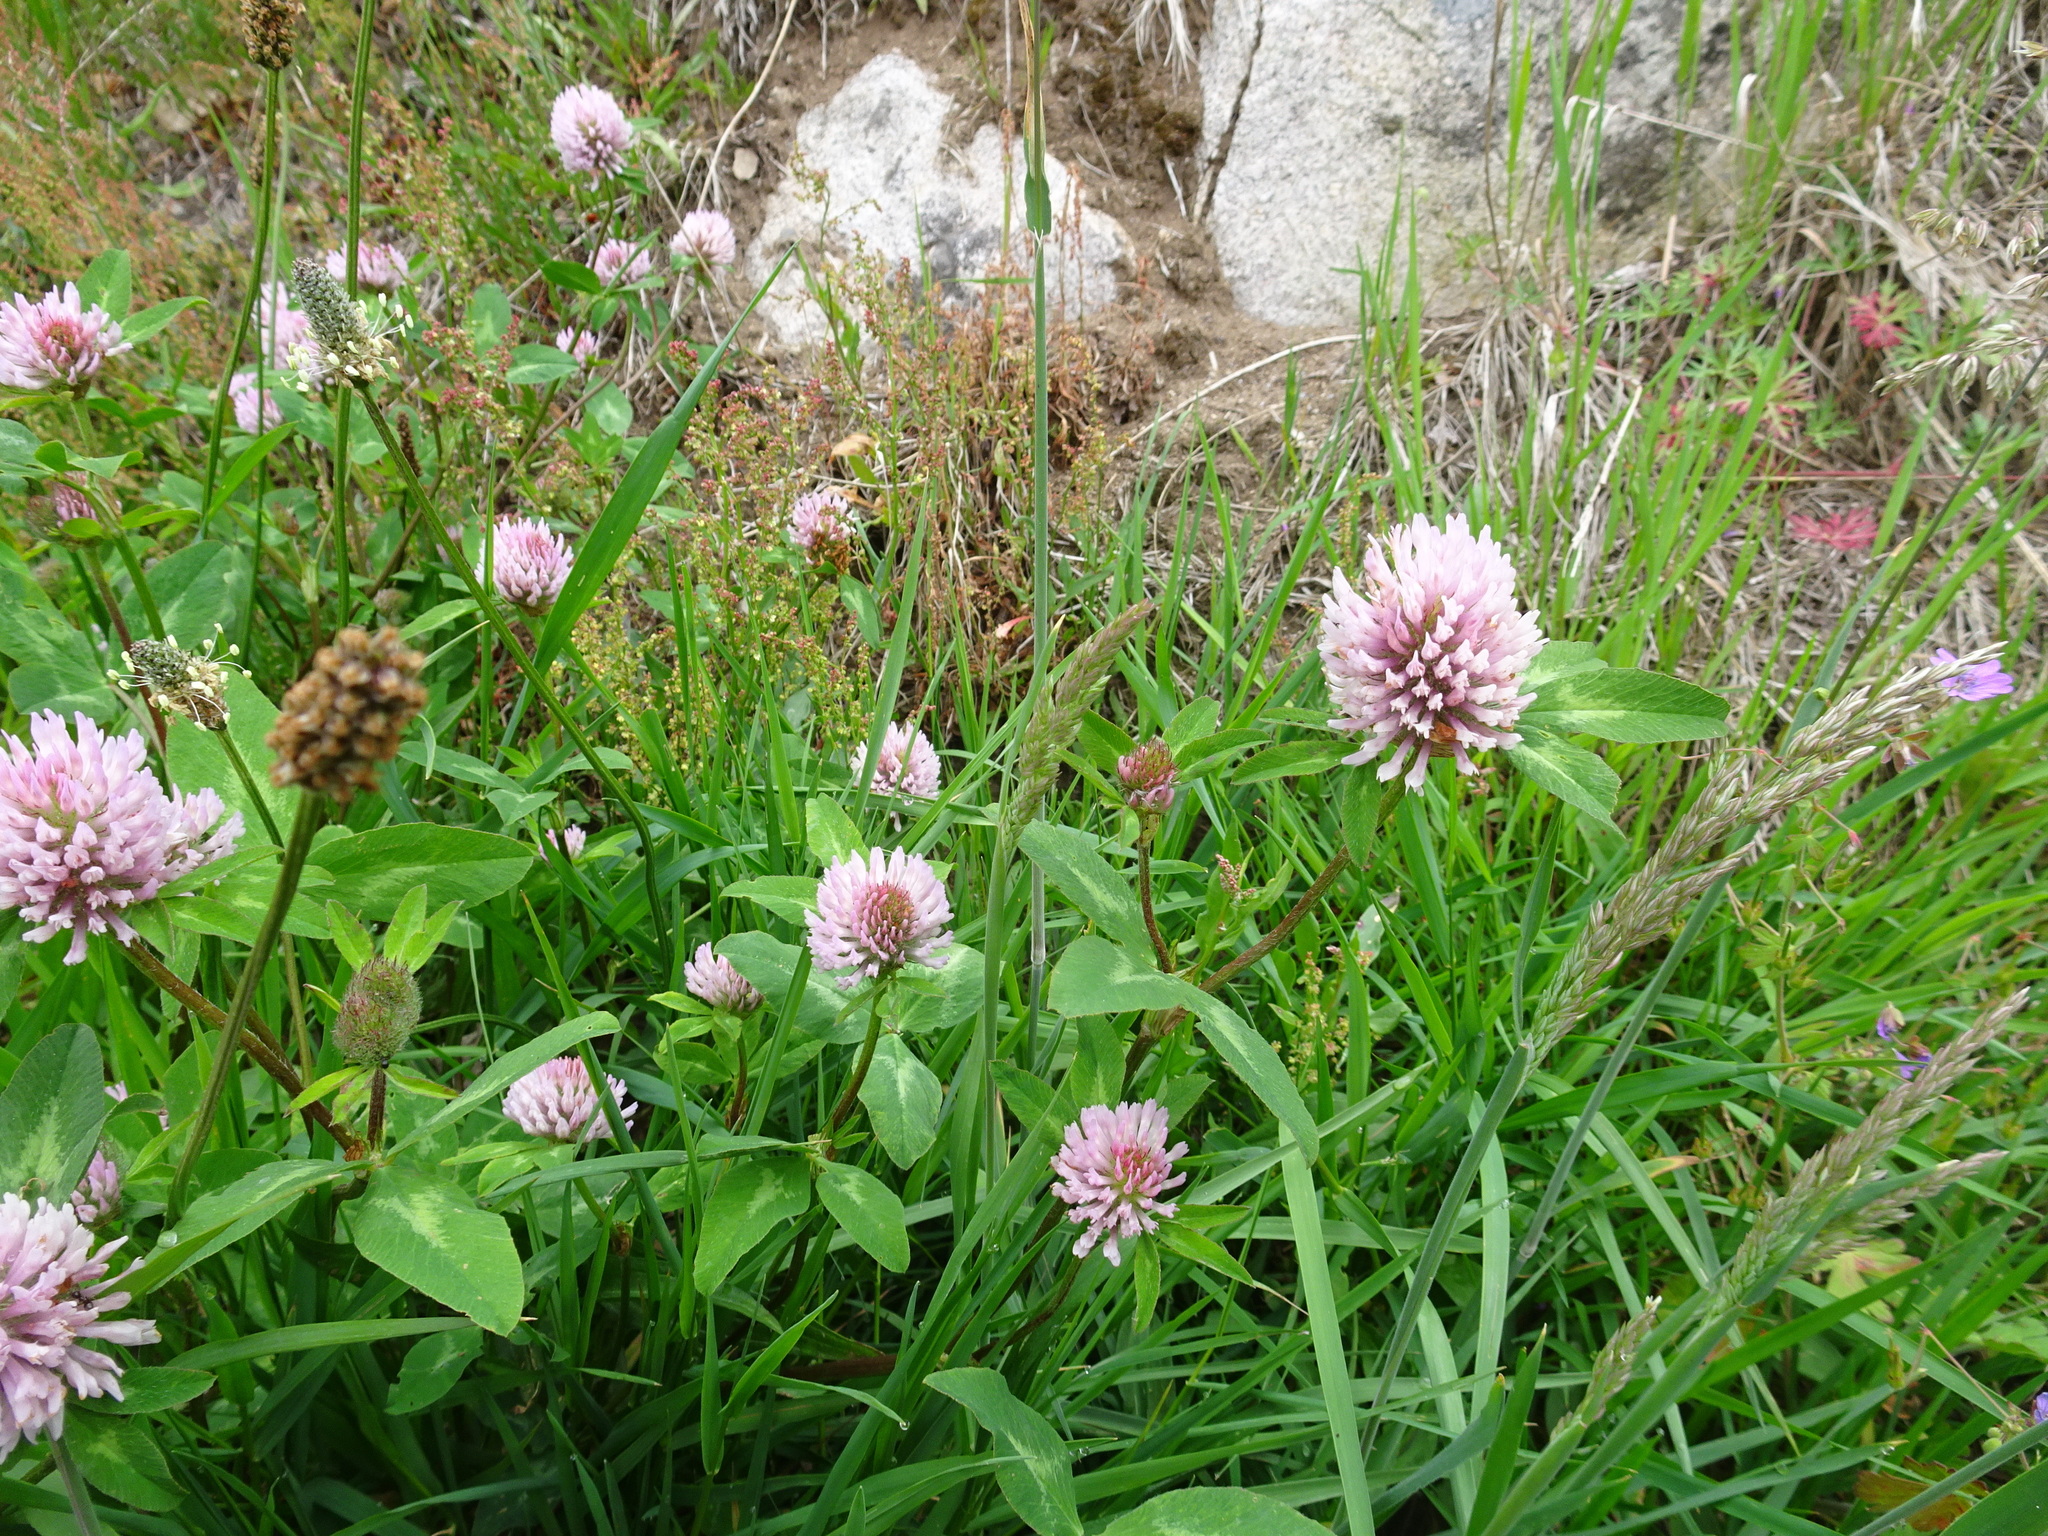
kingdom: Plantae
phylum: Tracheophyta
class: Magnoliopsida
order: Fabales
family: Fabaceae
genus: Trifolium
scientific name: Trifolium pratense
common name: Red clover
